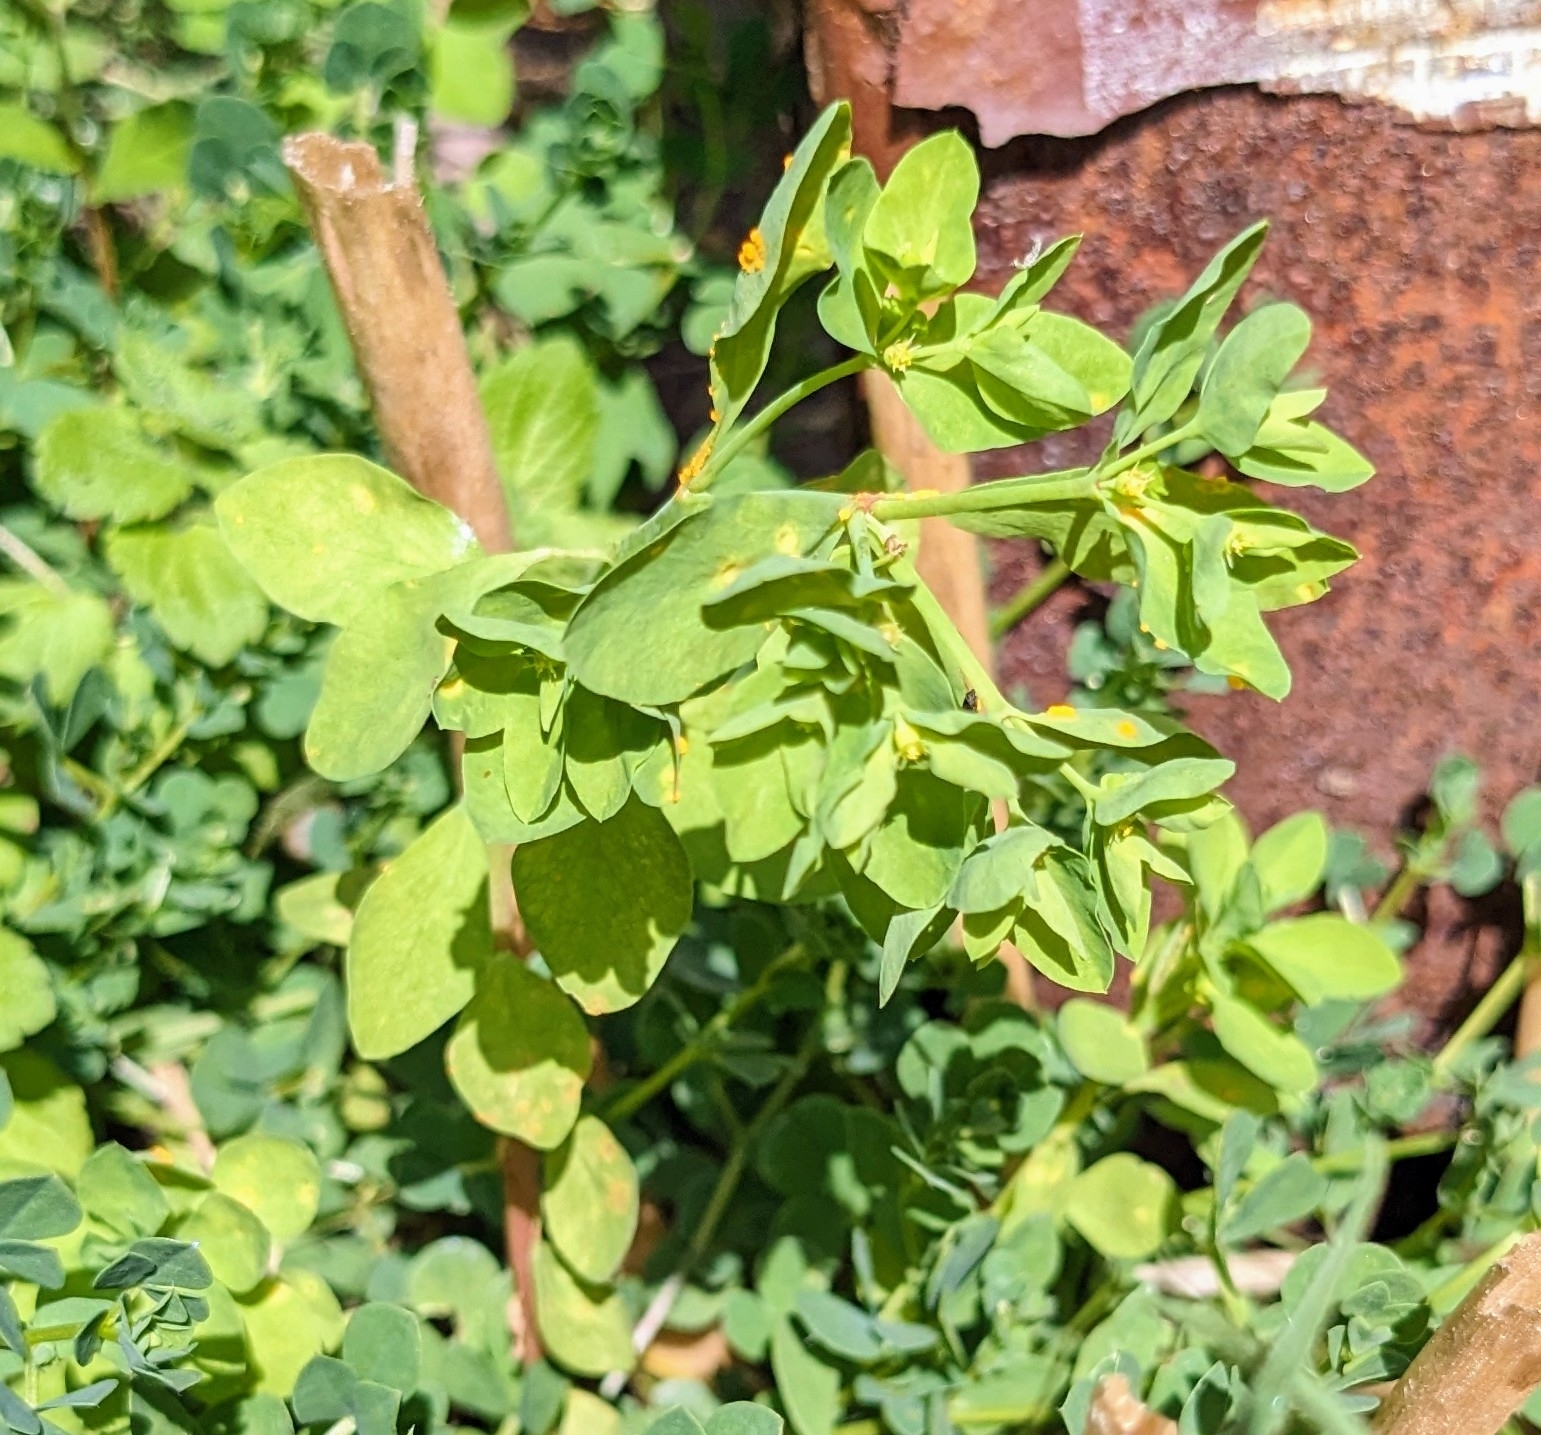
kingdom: Plantae
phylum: Tracheophyta
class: Magnoliopsida
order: Malpighiales
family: Euphorbiaceae
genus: Euphorbia
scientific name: Euphorbia peplus
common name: Petty spurge
